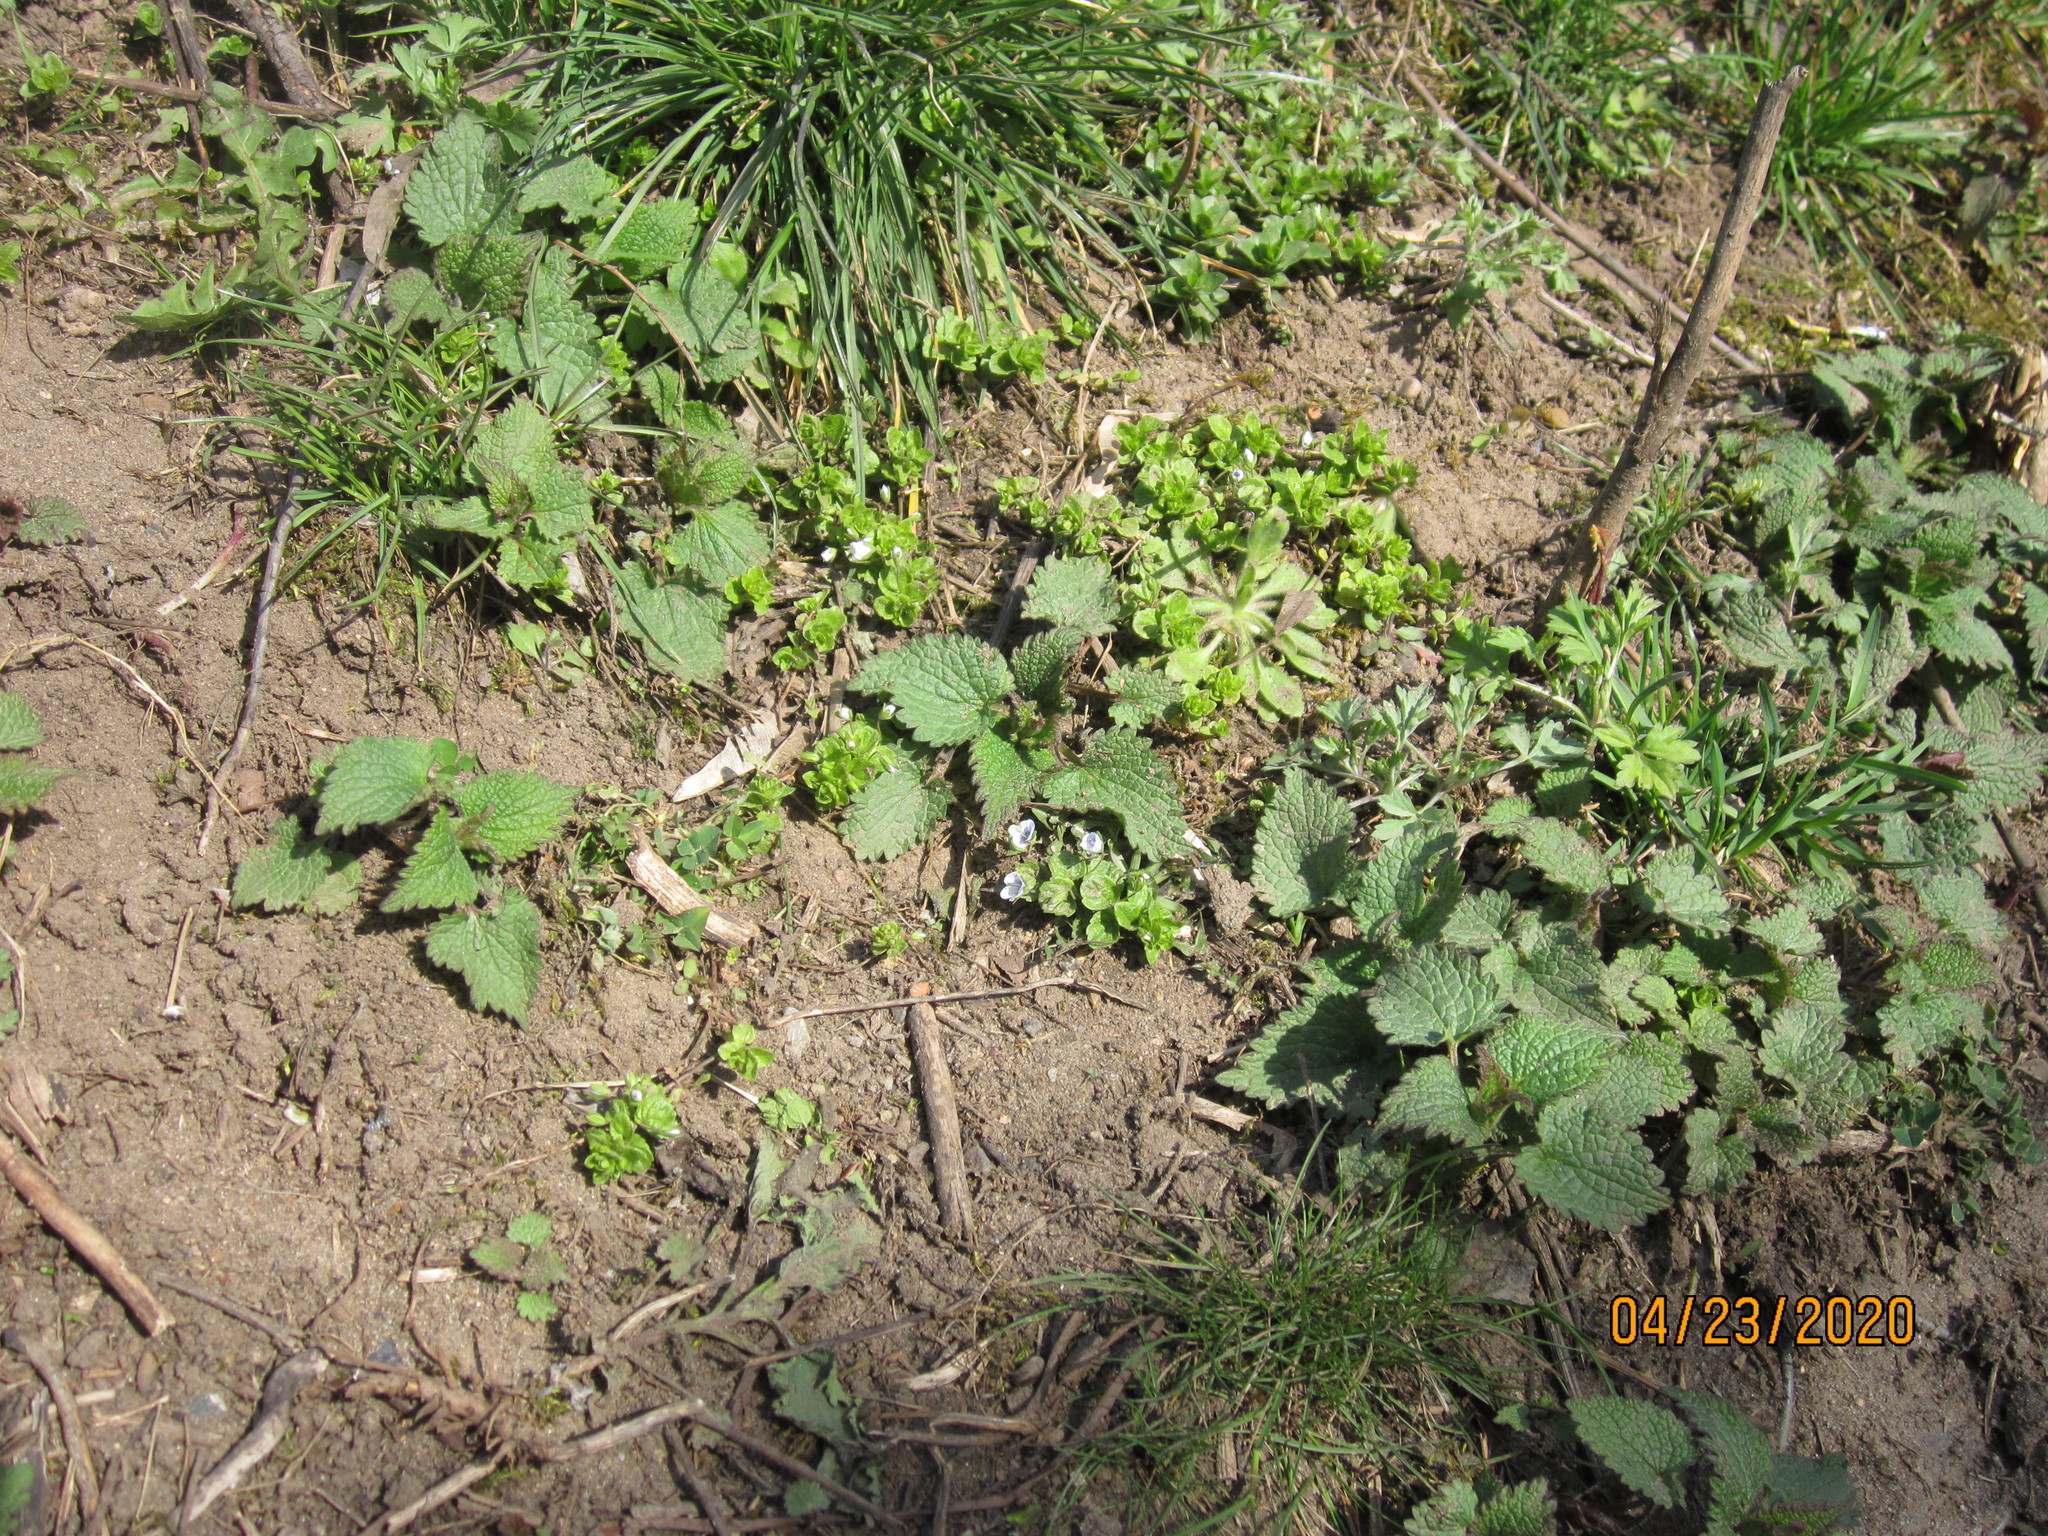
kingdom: Plantae
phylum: Tracheophyta
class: Magnoliopsida
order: Lamiales
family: Plantaginaceae
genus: Veronica
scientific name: Veronica filiformis
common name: Slender speedwell
